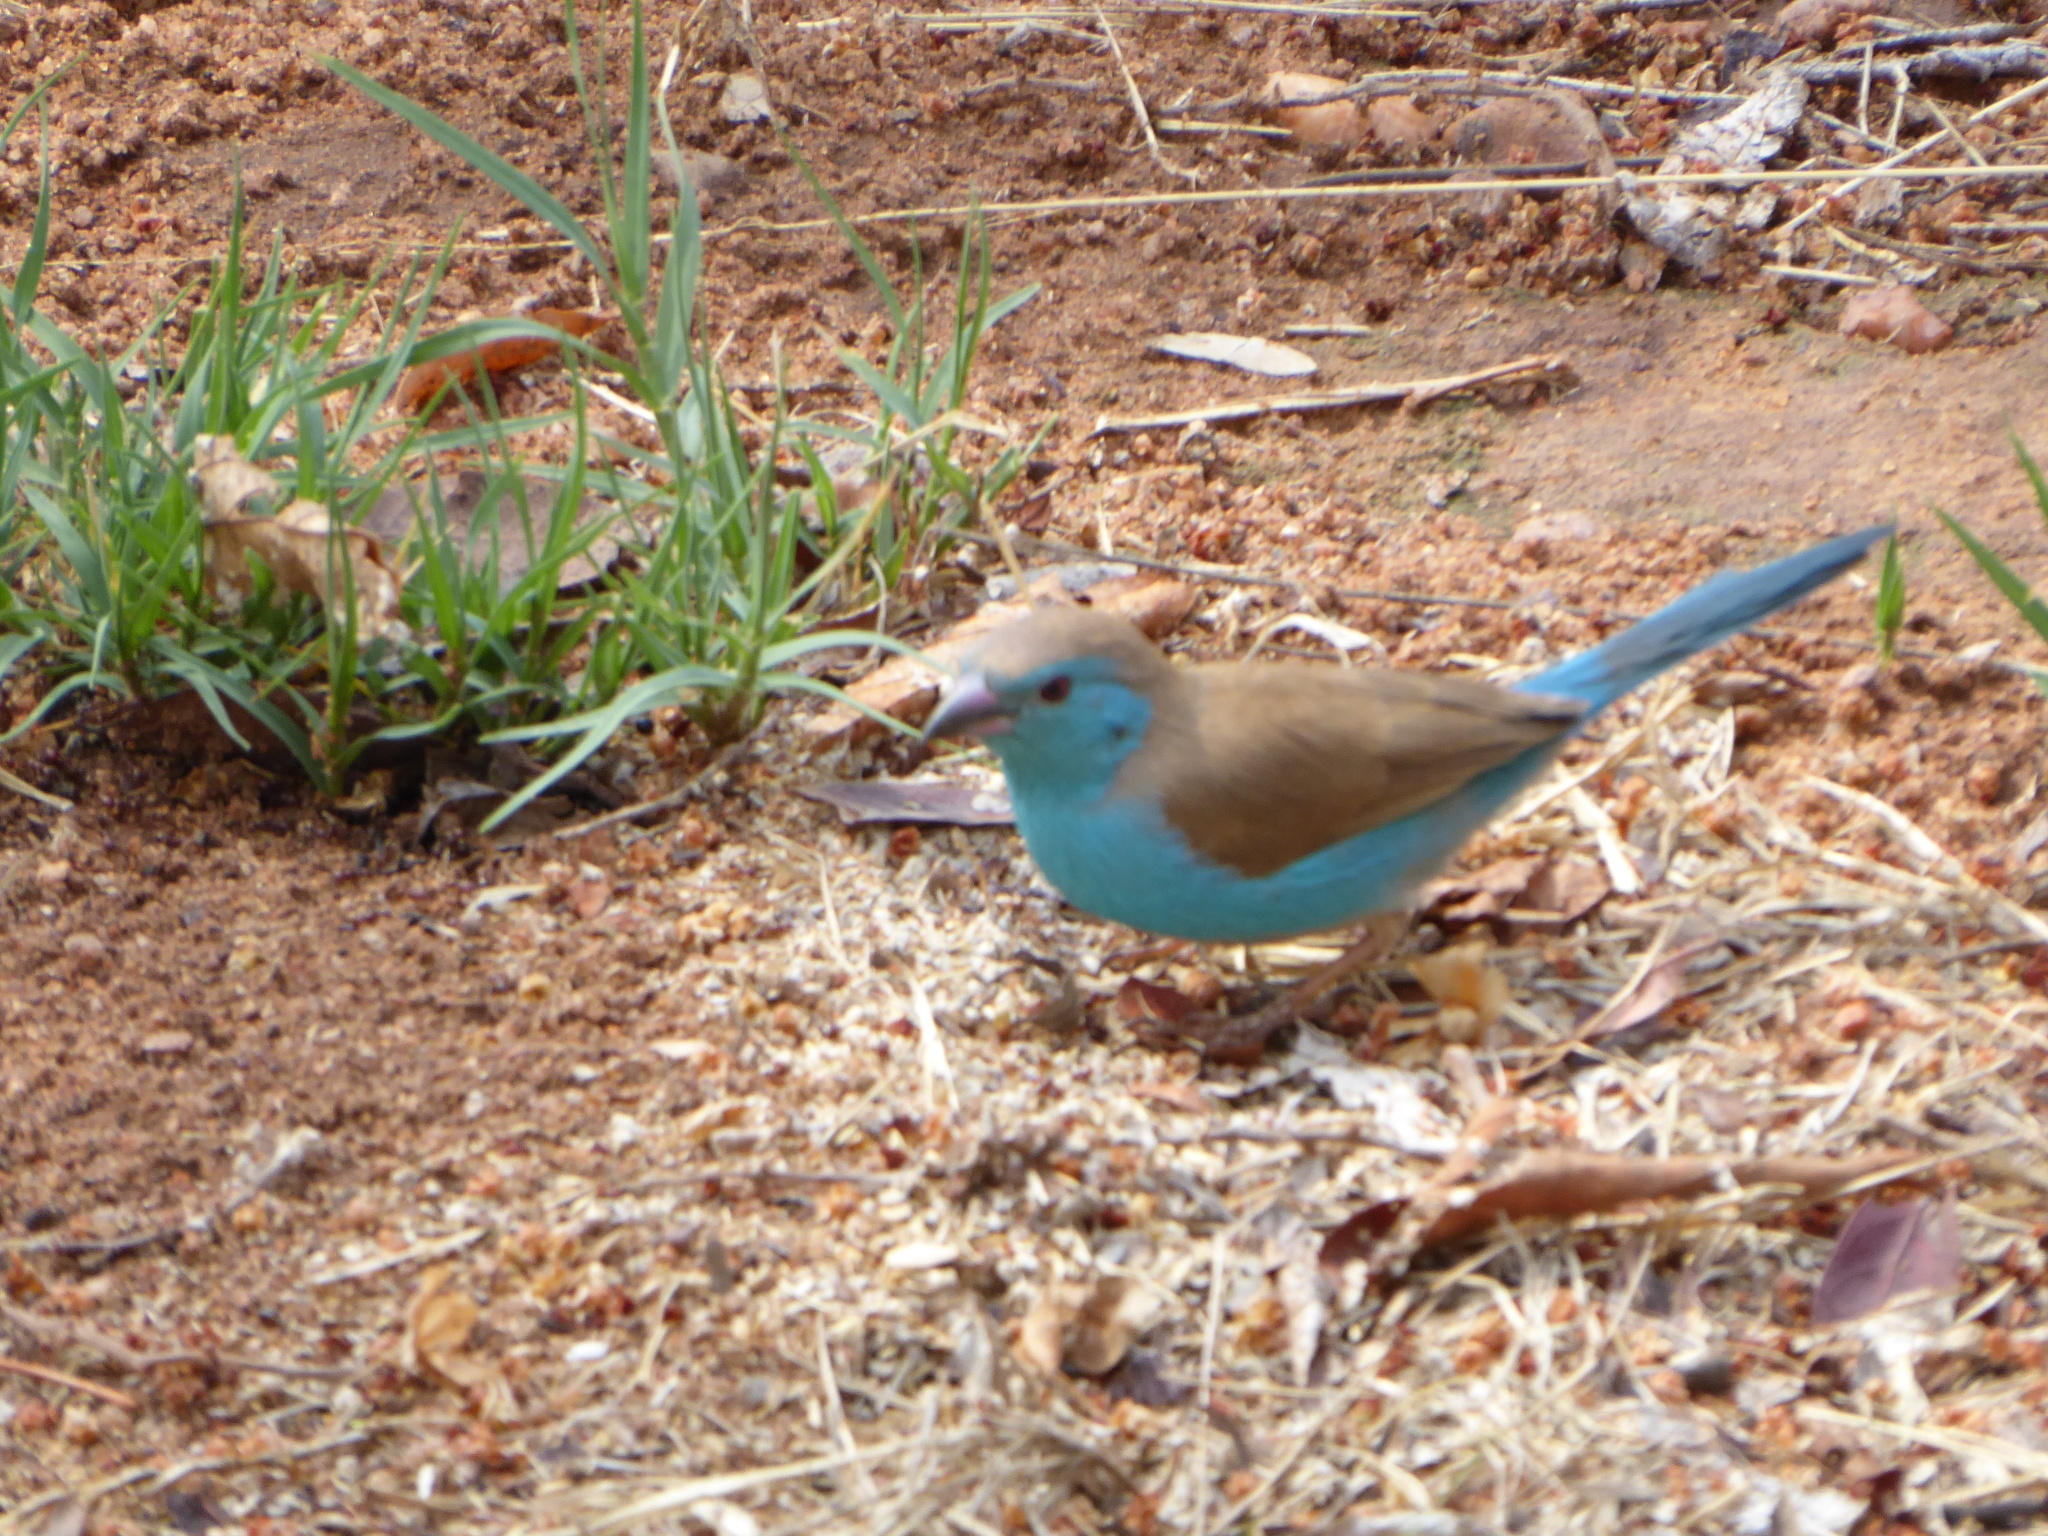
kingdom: Animalia
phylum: Chordata
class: Aves
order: Passeriformes
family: Estrildidae
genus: Uraeginthus
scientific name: Uraeginthus angolensis
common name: Blue waxbill
